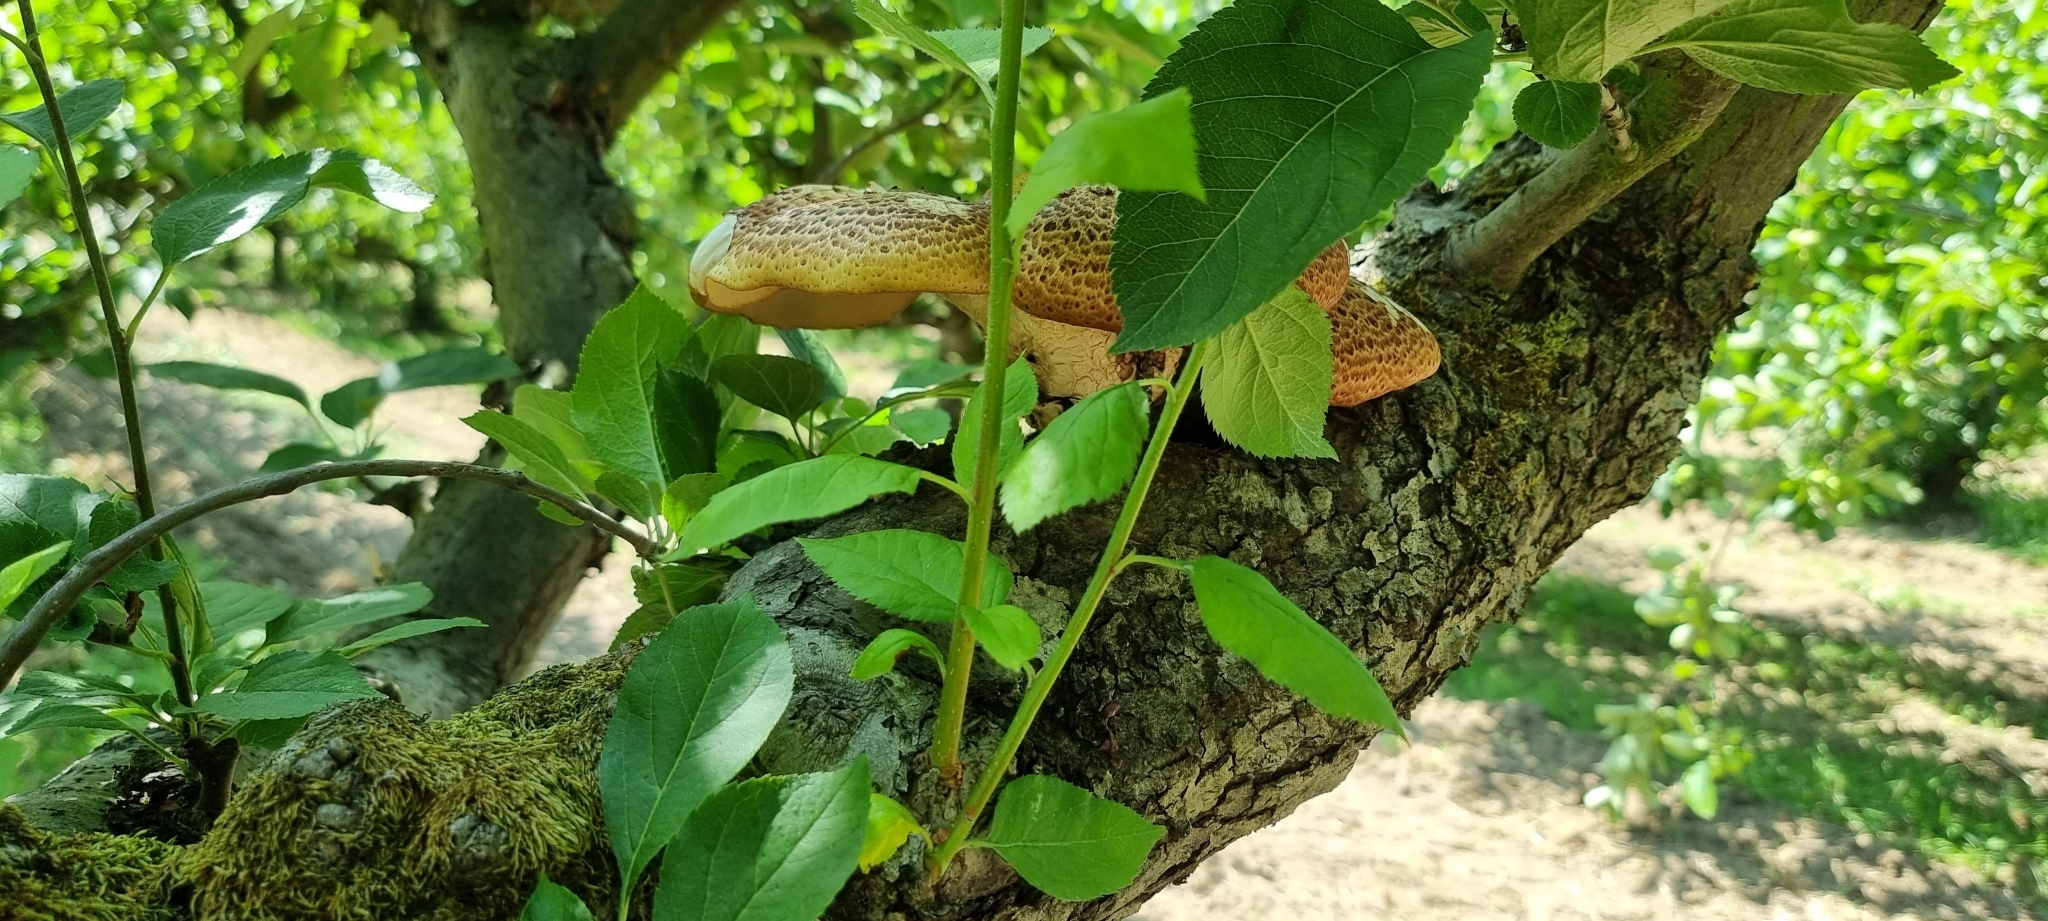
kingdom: Fungi
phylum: Basidiomycota
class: Agaricomycetes
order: Polyporales
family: Polyporaceae
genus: Cerioporus
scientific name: Cerioporus squamosus
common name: Dryad's saddle
